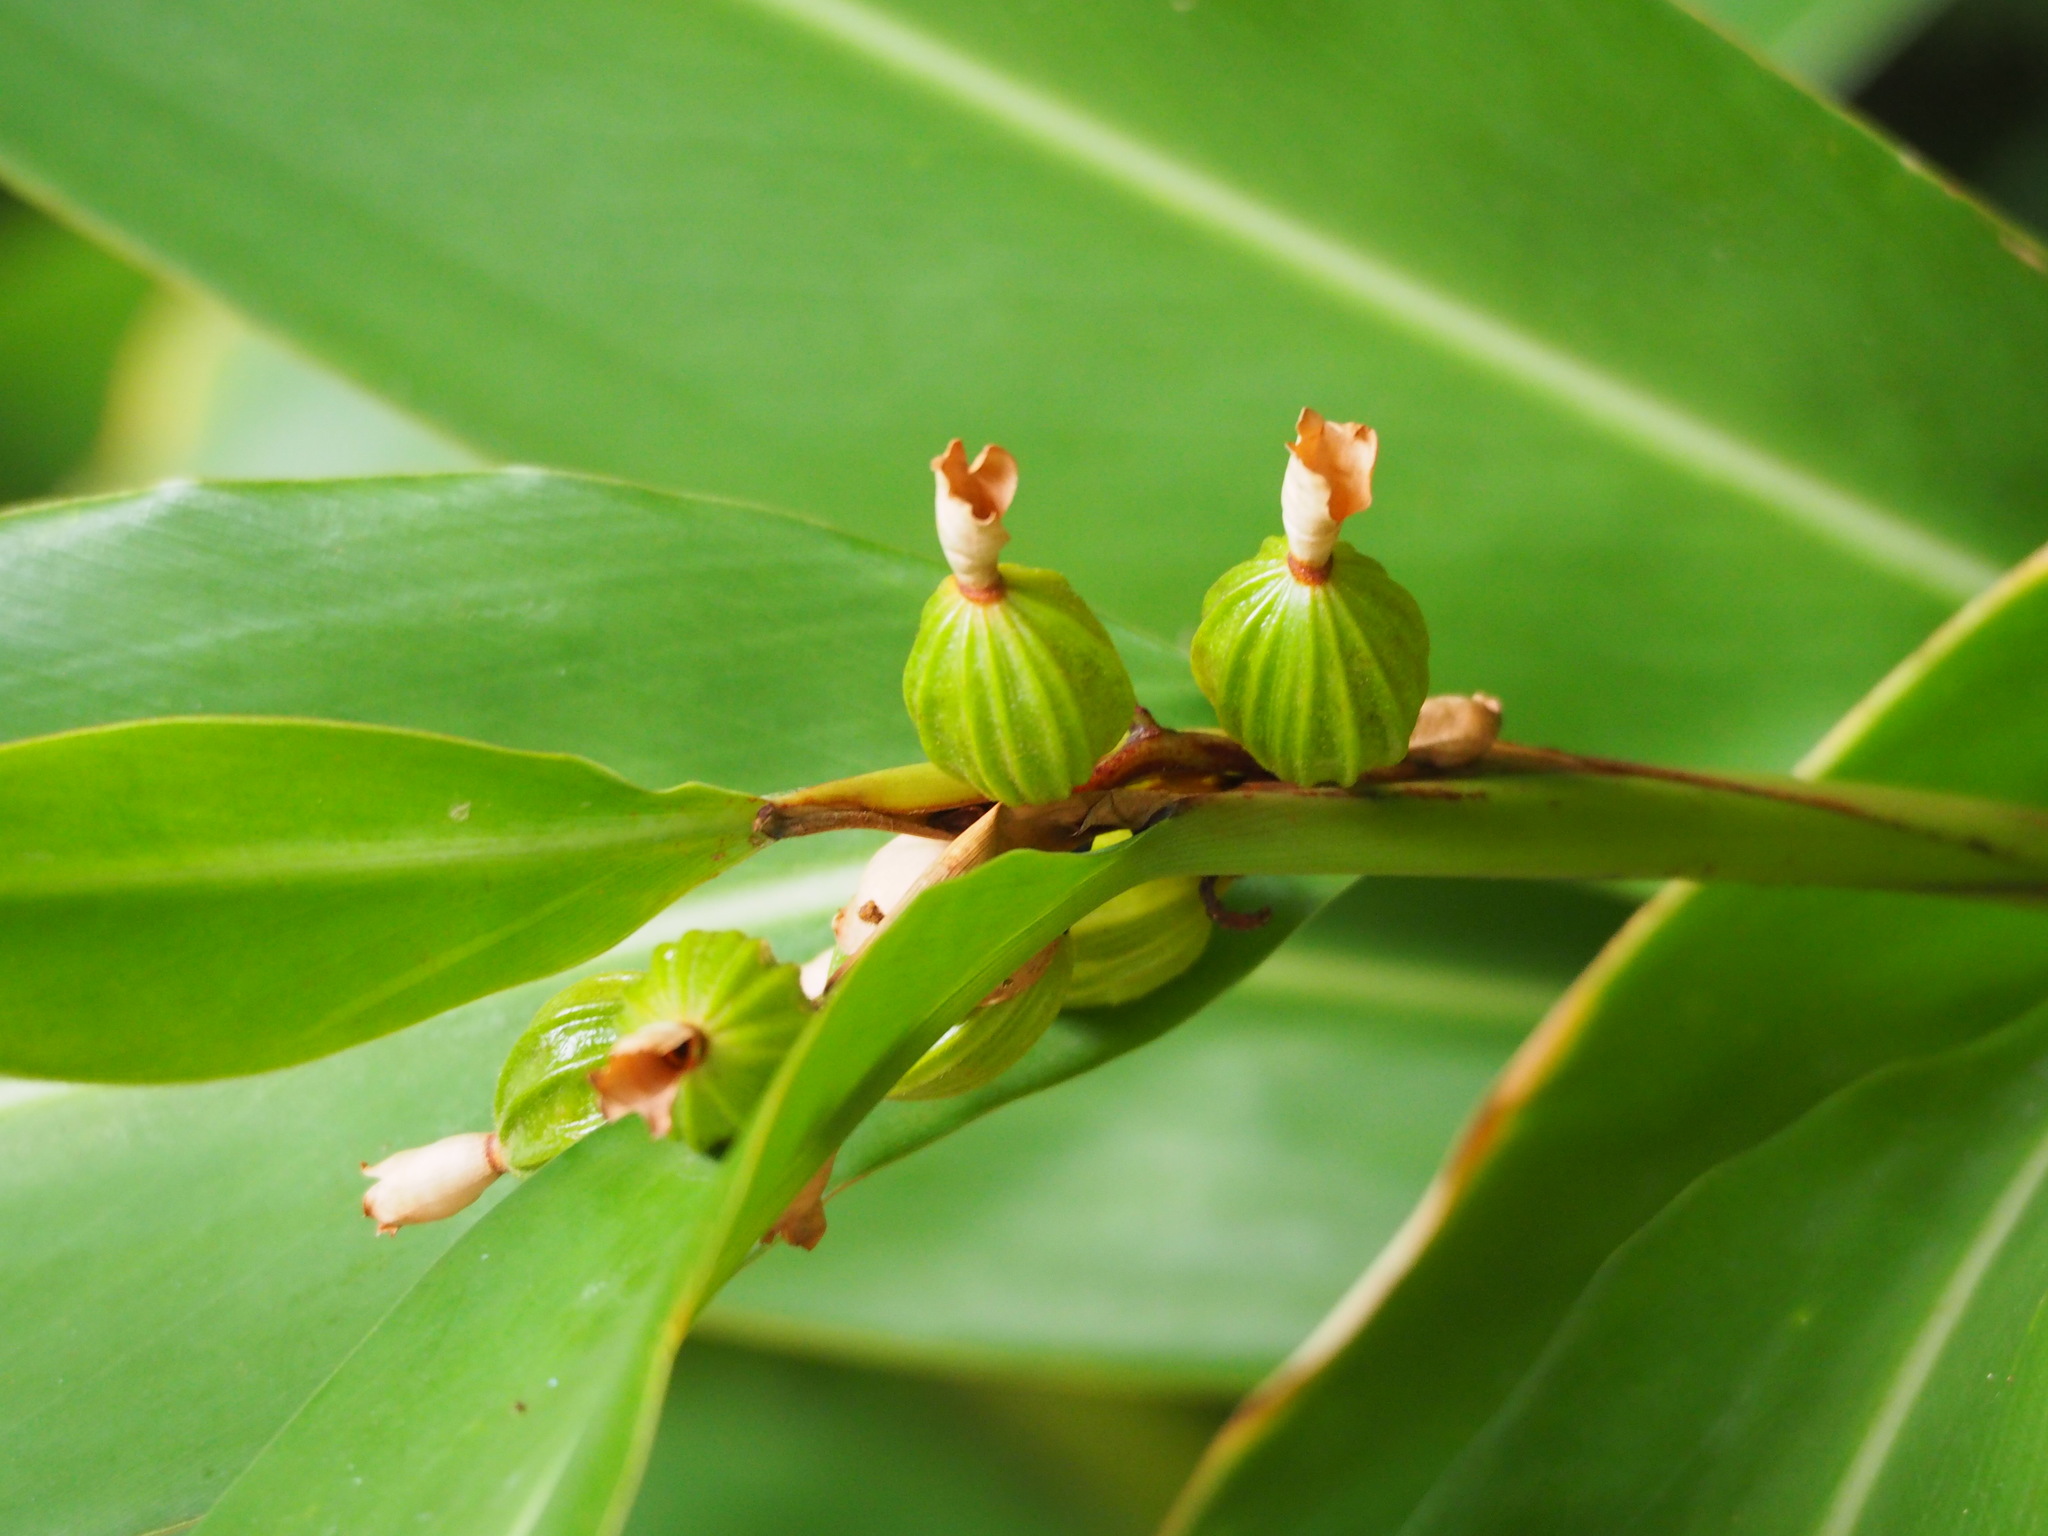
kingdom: Plantae
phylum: Tracheophyta
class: Liliopsida
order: Zingiberales
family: Zingiberaceae
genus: Alpinia
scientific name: Alpinia zerumbet
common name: Shellplant
